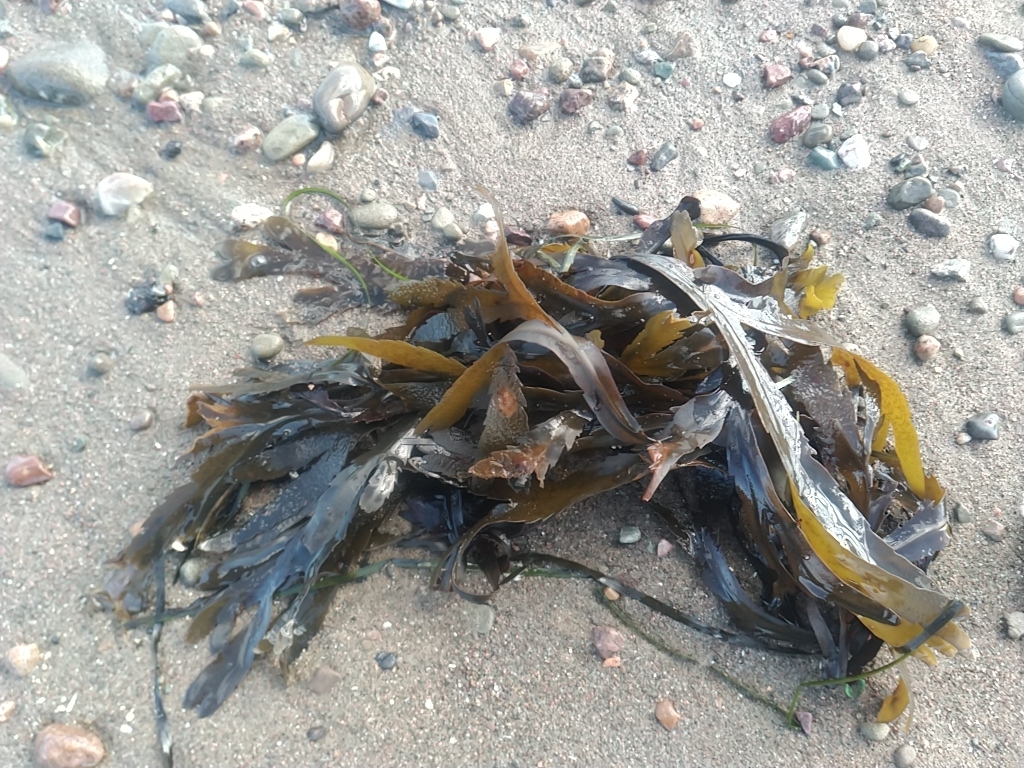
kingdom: Chromista
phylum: Ochrophyta
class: Phaeophyceae
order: Fucales
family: Fucaceae
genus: Fucus
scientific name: Fucus serratus
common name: Toothed wrack
